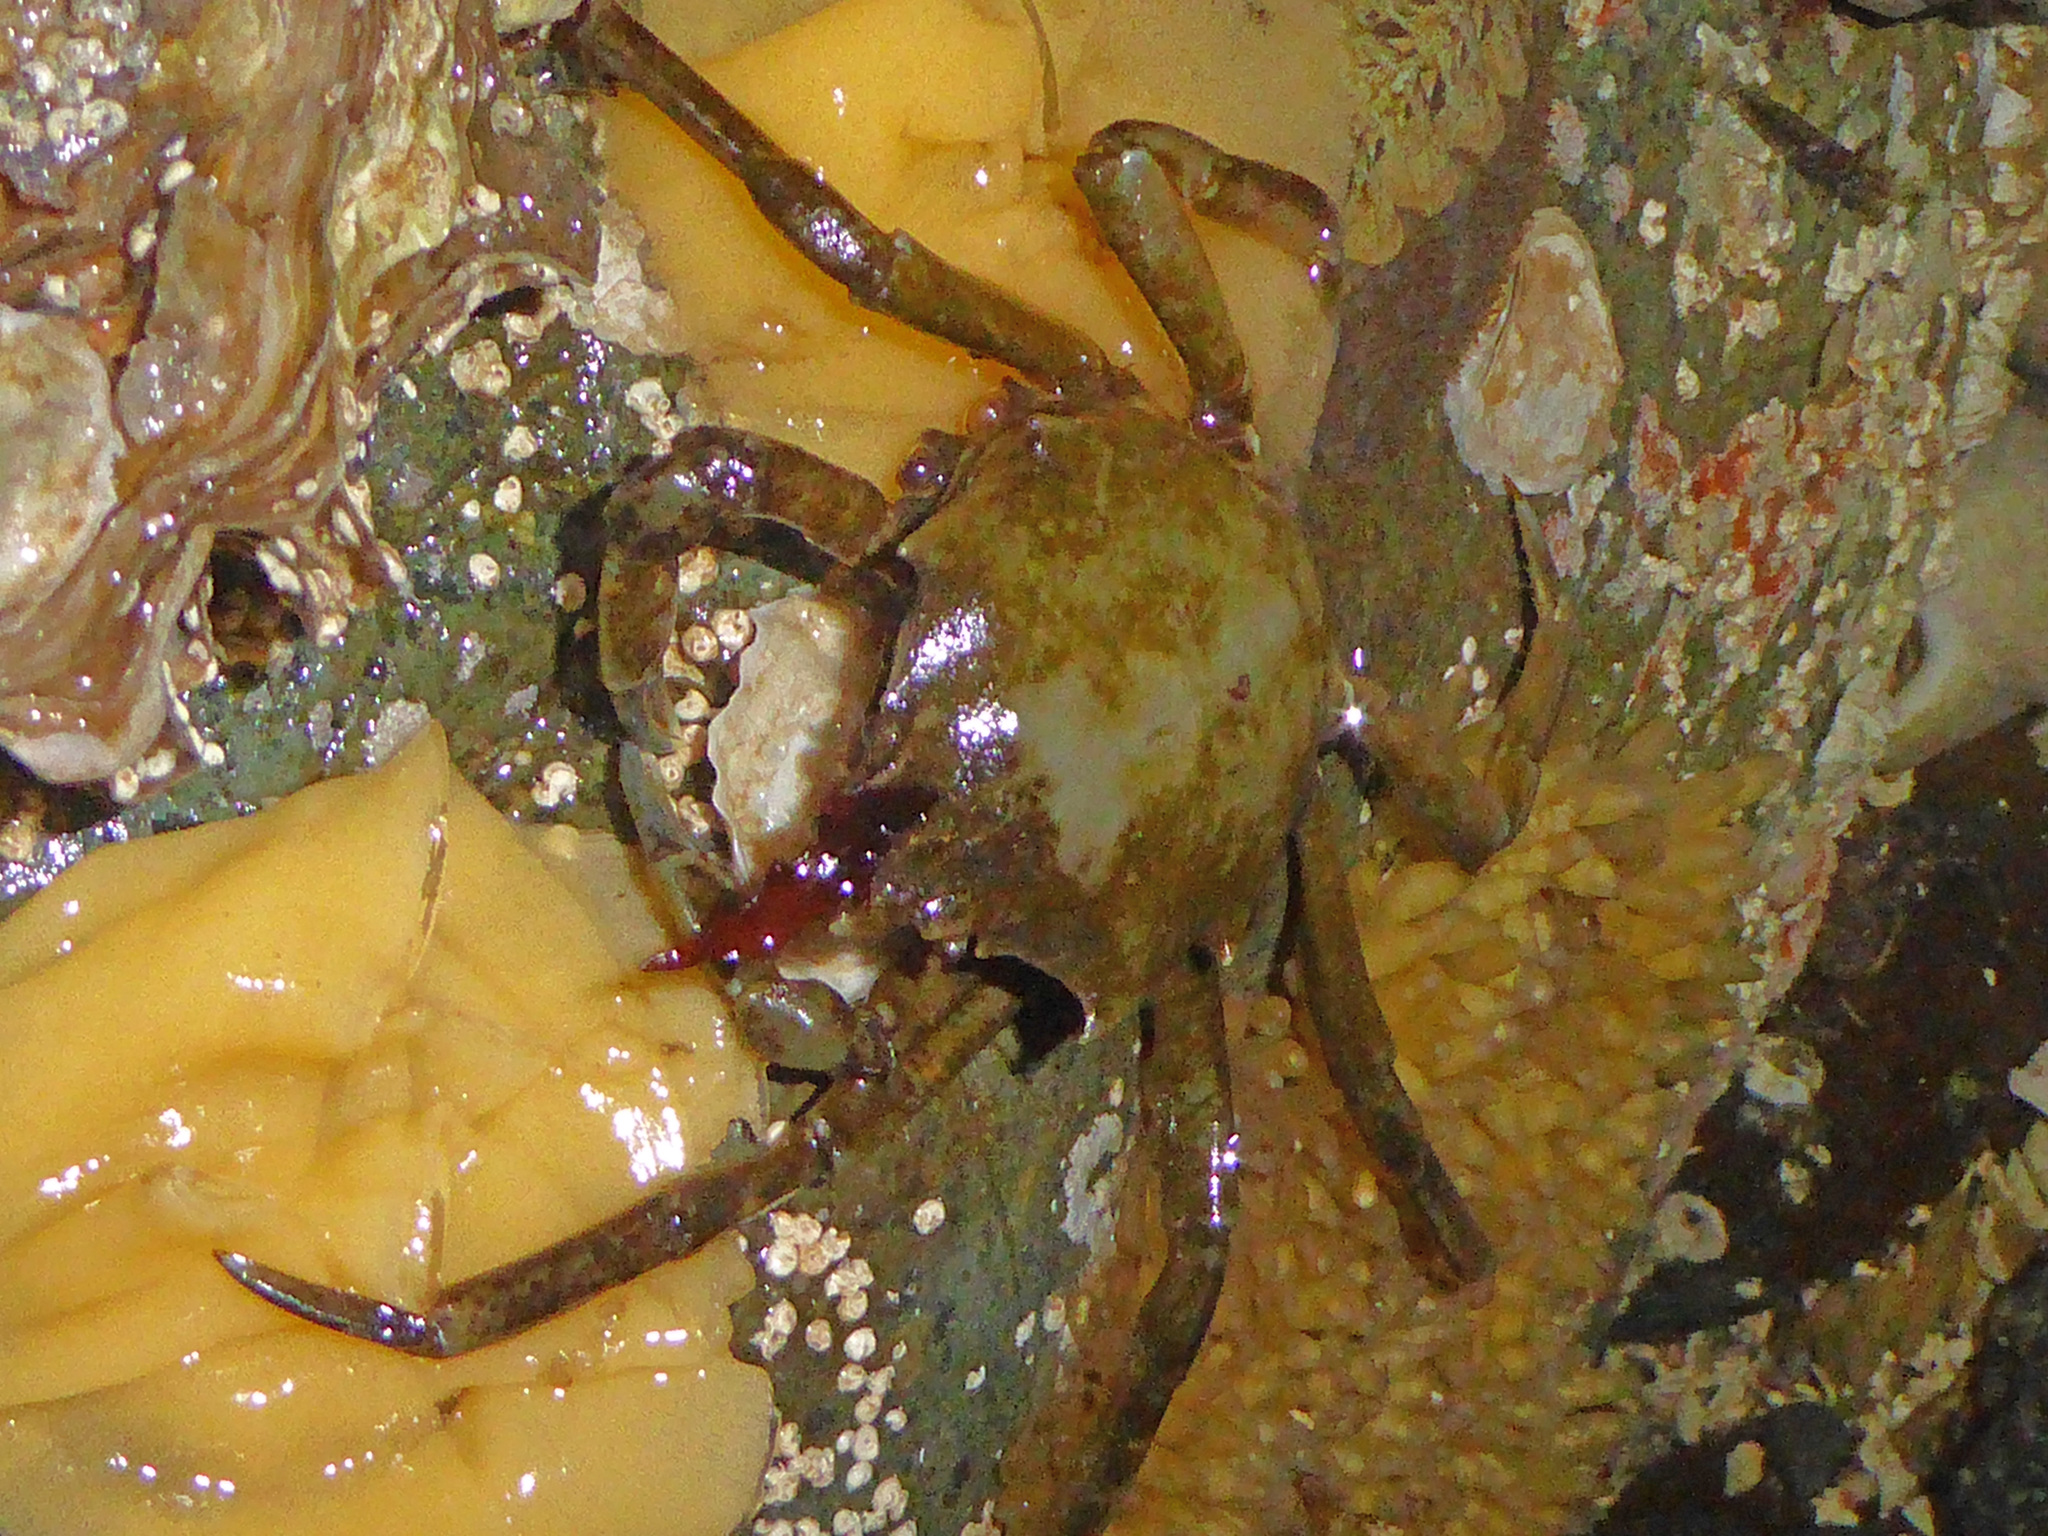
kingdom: Animalia
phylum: Arthropoda
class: Malacostraca
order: Decapoda
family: Epialtidae
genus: Pugettia
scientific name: Pugettia producta
